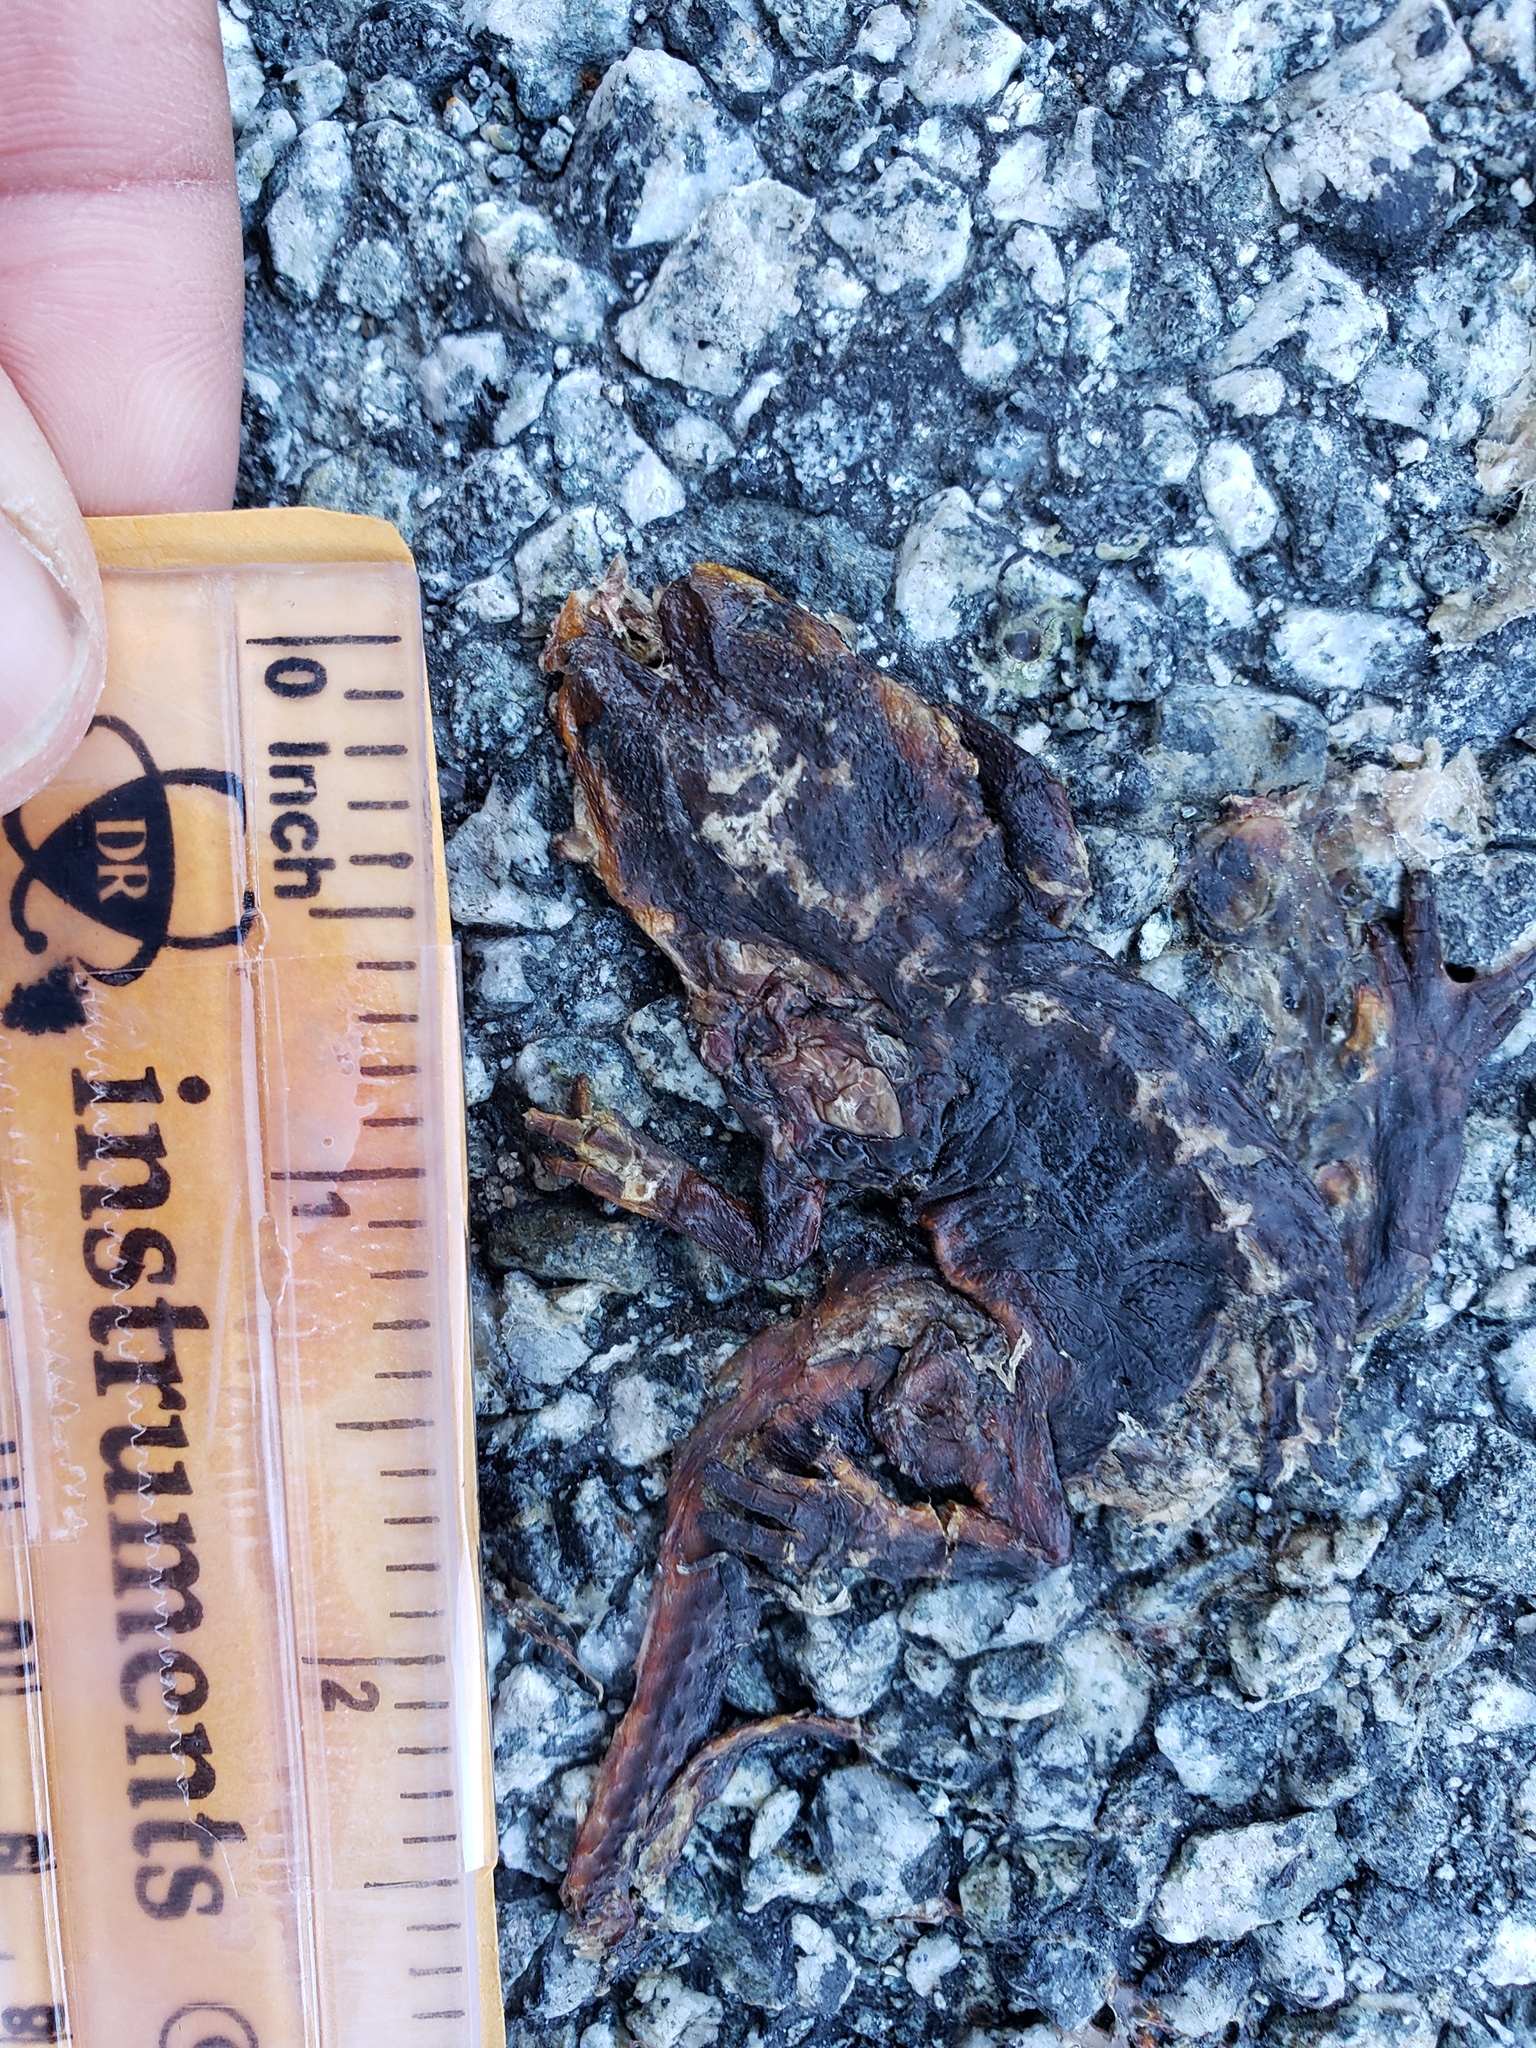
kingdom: Animalia
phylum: Chordata
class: Amphibia
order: Caudata
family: Salamandridae
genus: Taricha
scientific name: Taricha
